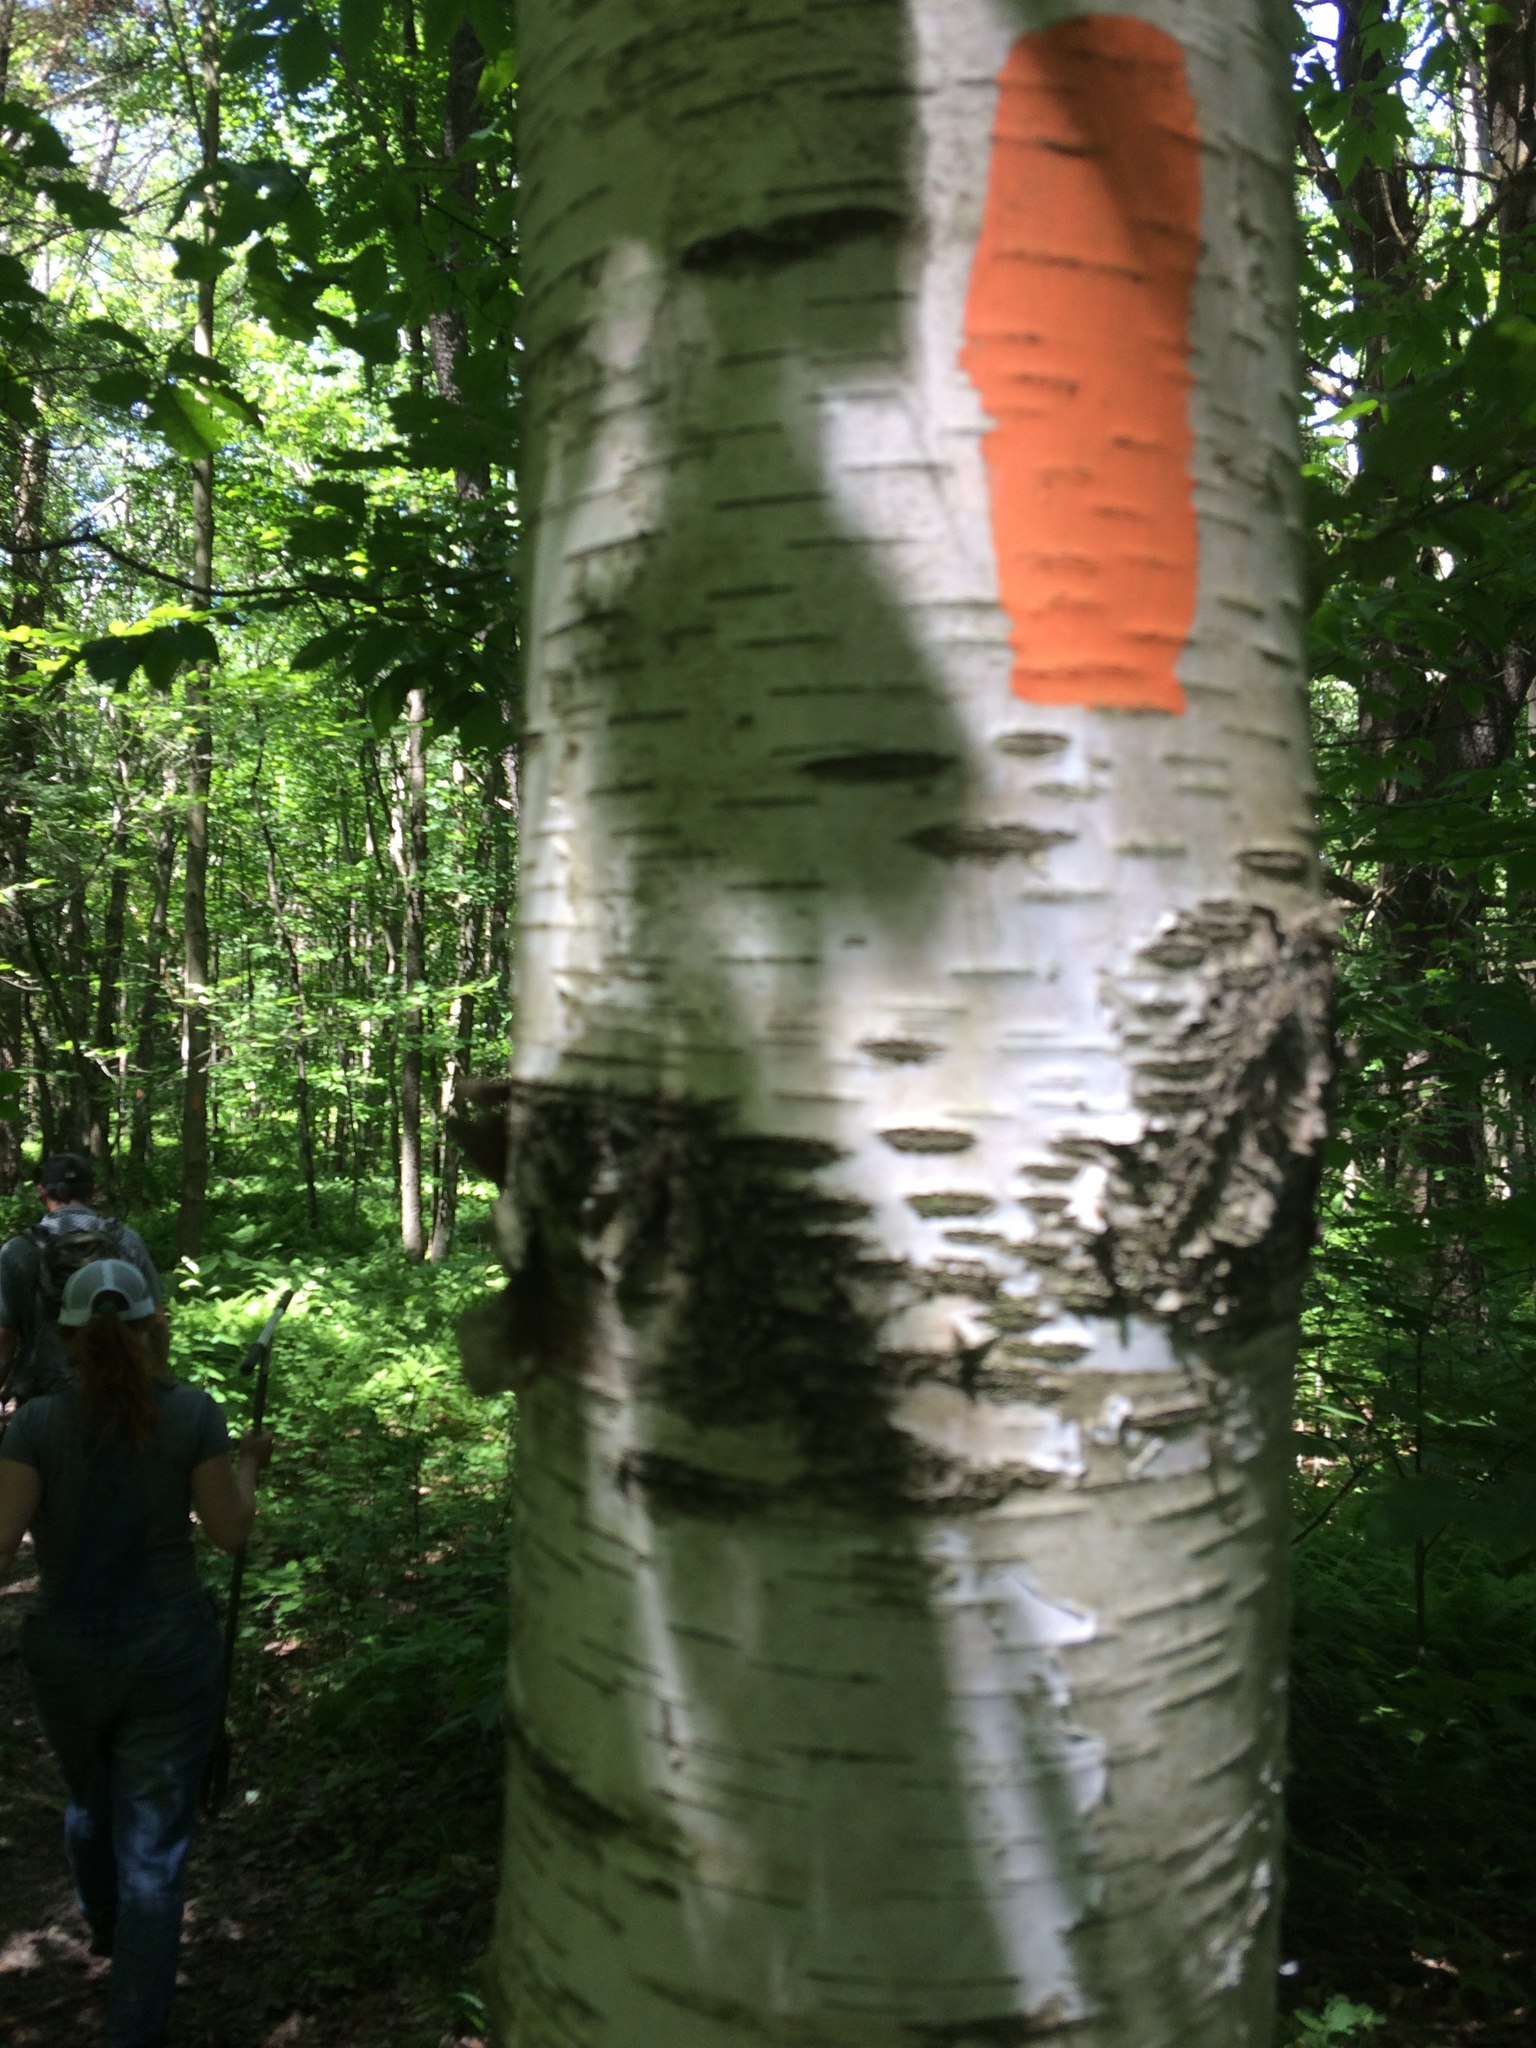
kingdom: Plantae
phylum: Tracheophyta
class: Magnoliopsida
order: Fagales
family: Betulaceae
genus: Betula
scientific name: Betula populifolia
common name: Fire birch
